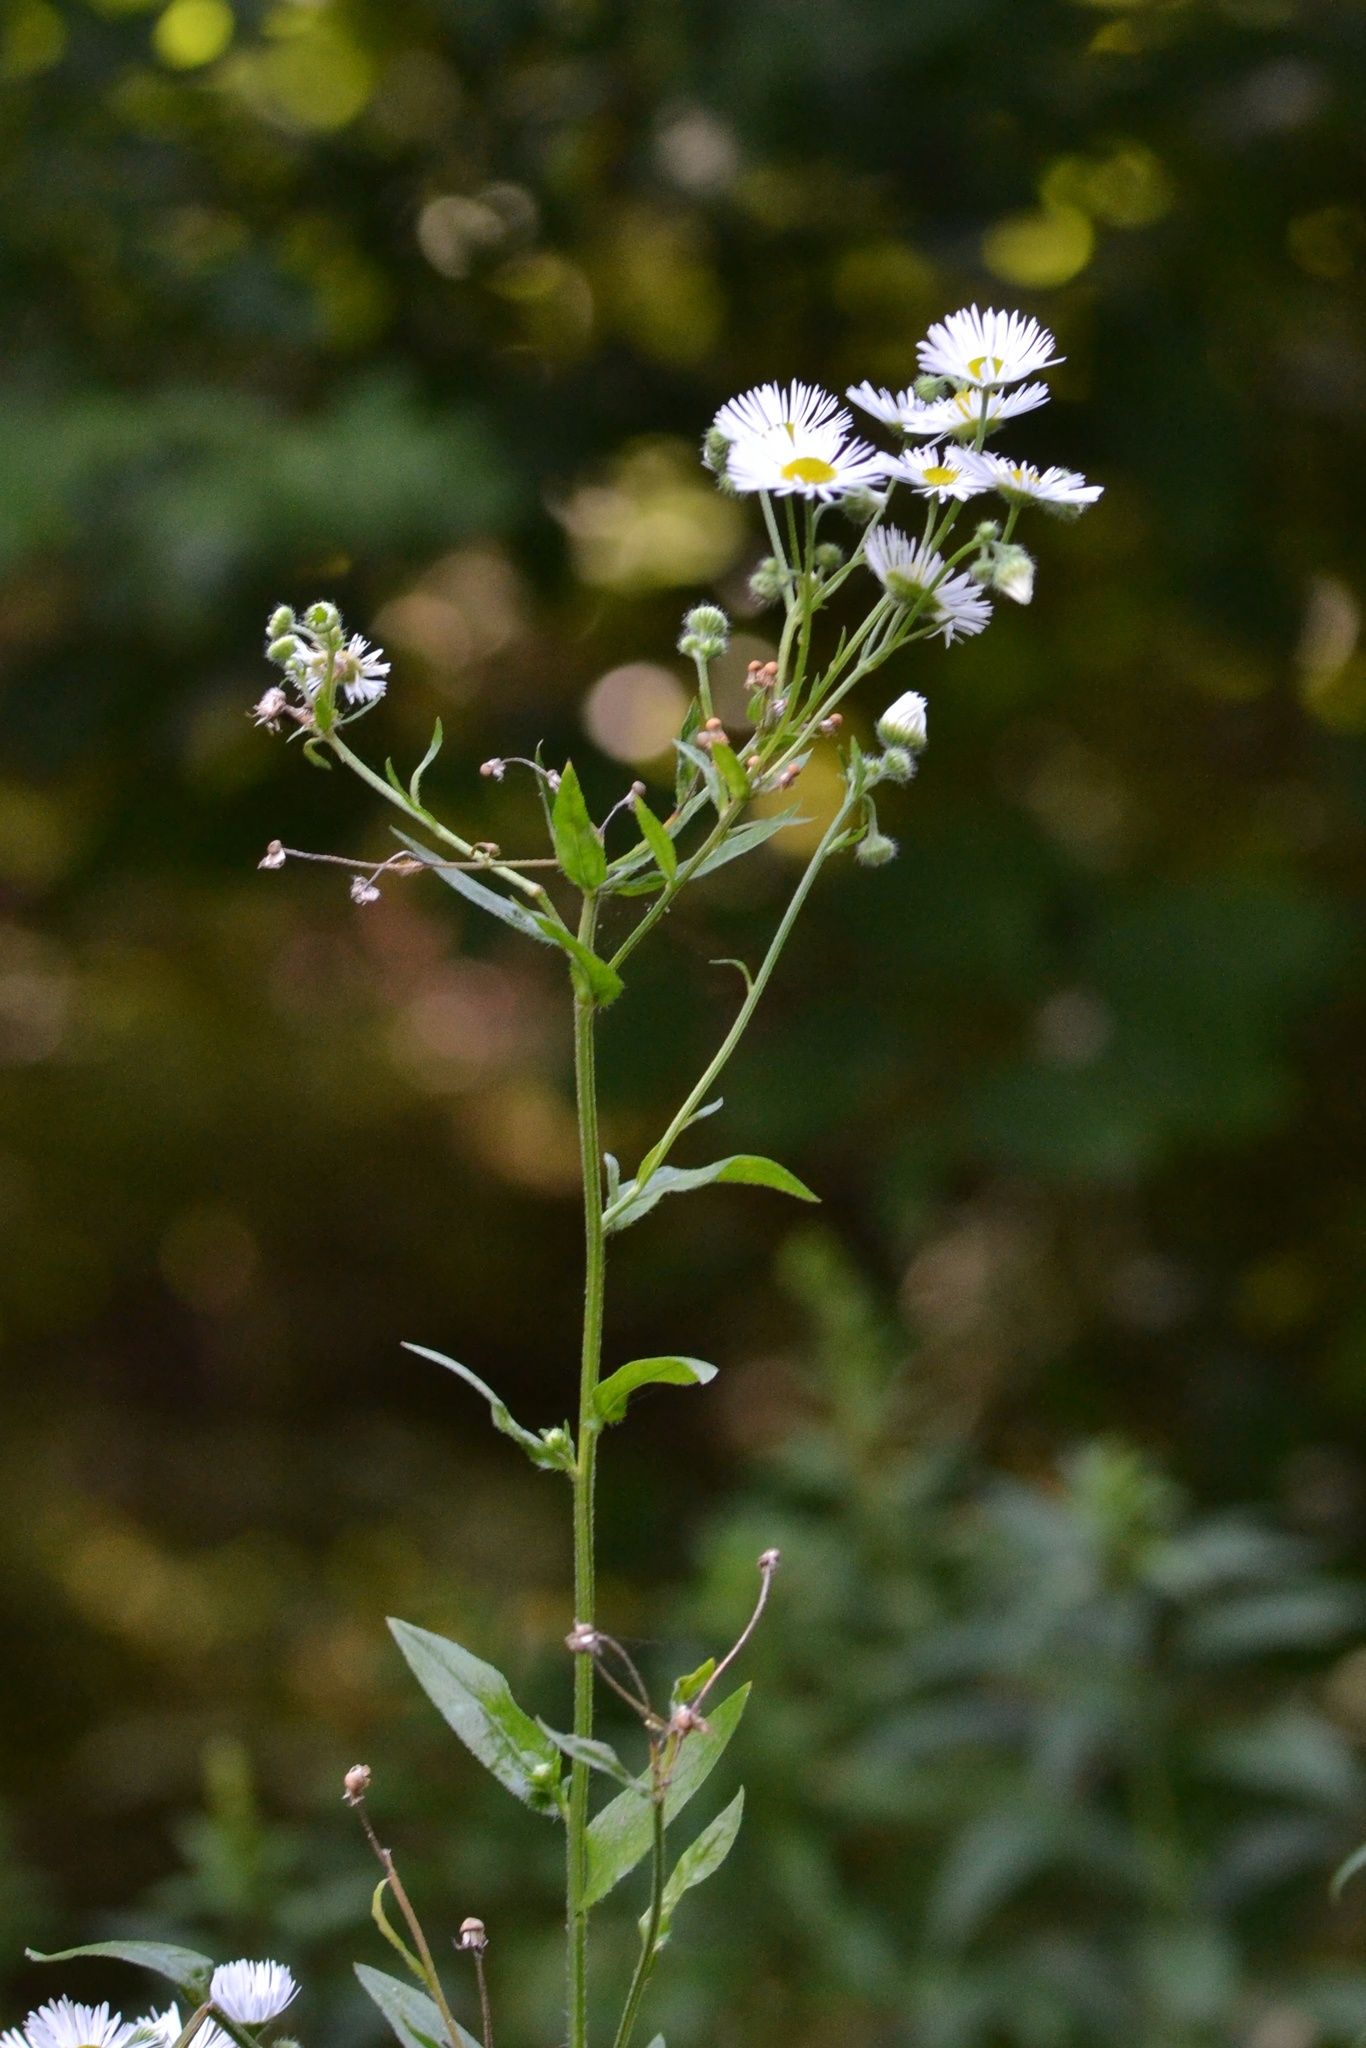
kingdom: Plantae
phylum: Tracheophyta
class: Magnoliopsida
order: Asterales
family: Asteraceae
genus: Erigeron
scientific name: Erigeron annuus
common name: Tall fleabane
